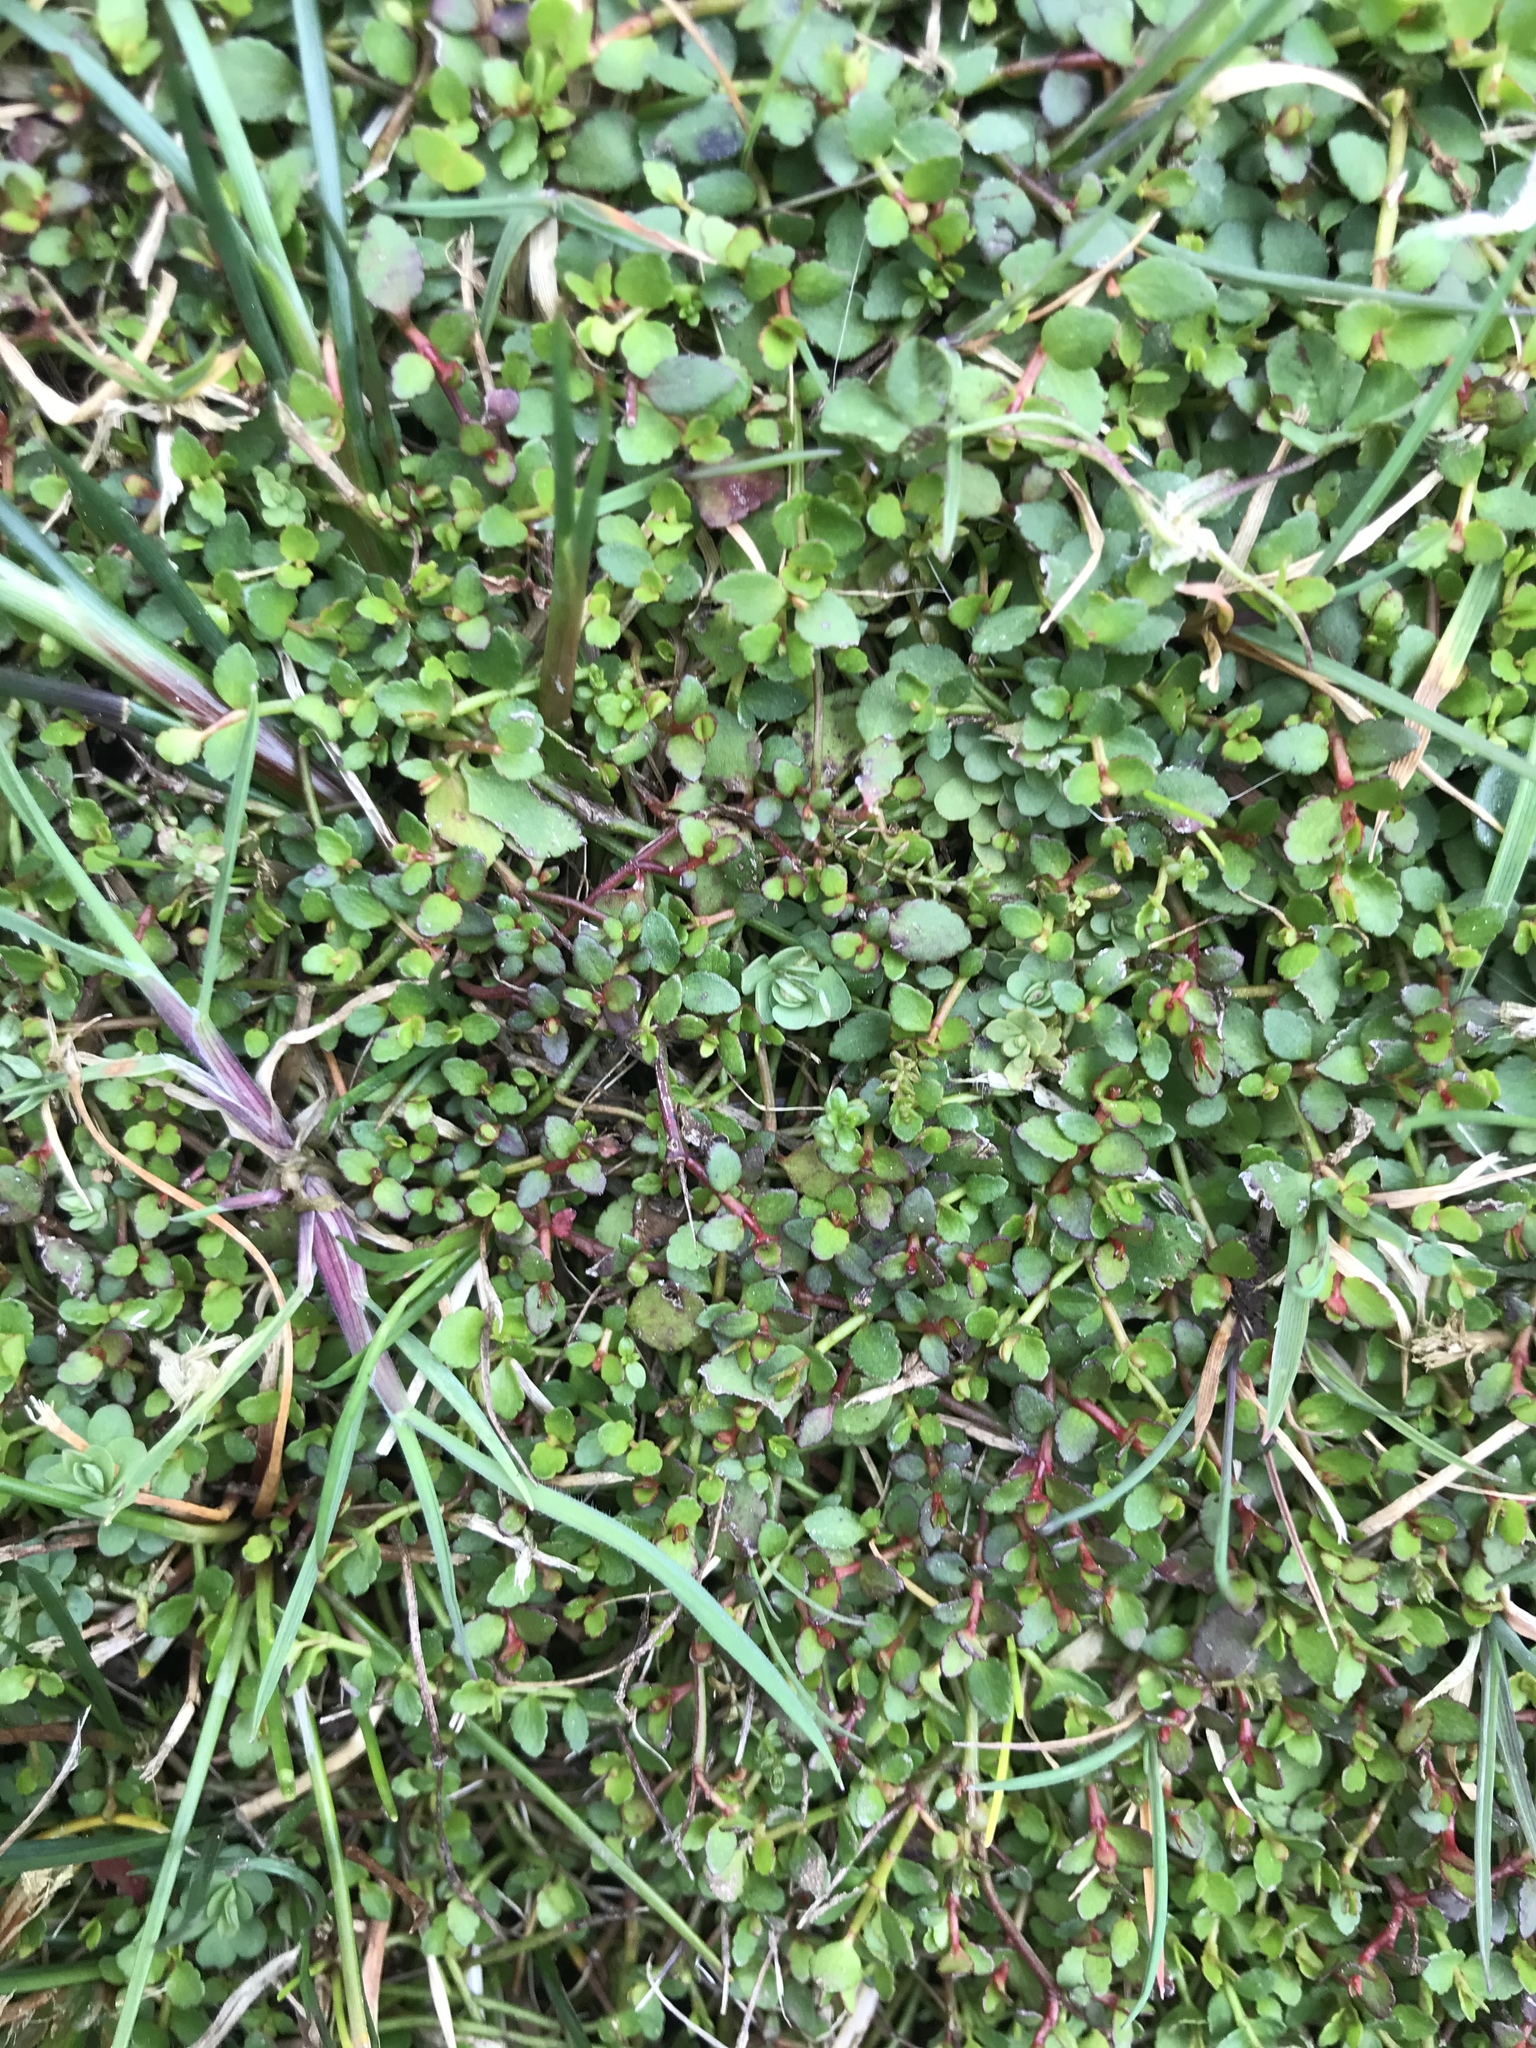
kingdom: Plantae
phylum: Tracheophyta
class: Magnoliopsida
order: Saxifragales
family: Haloragaceae
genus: Gonocarpus
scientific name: Gonocarpus micranthus
